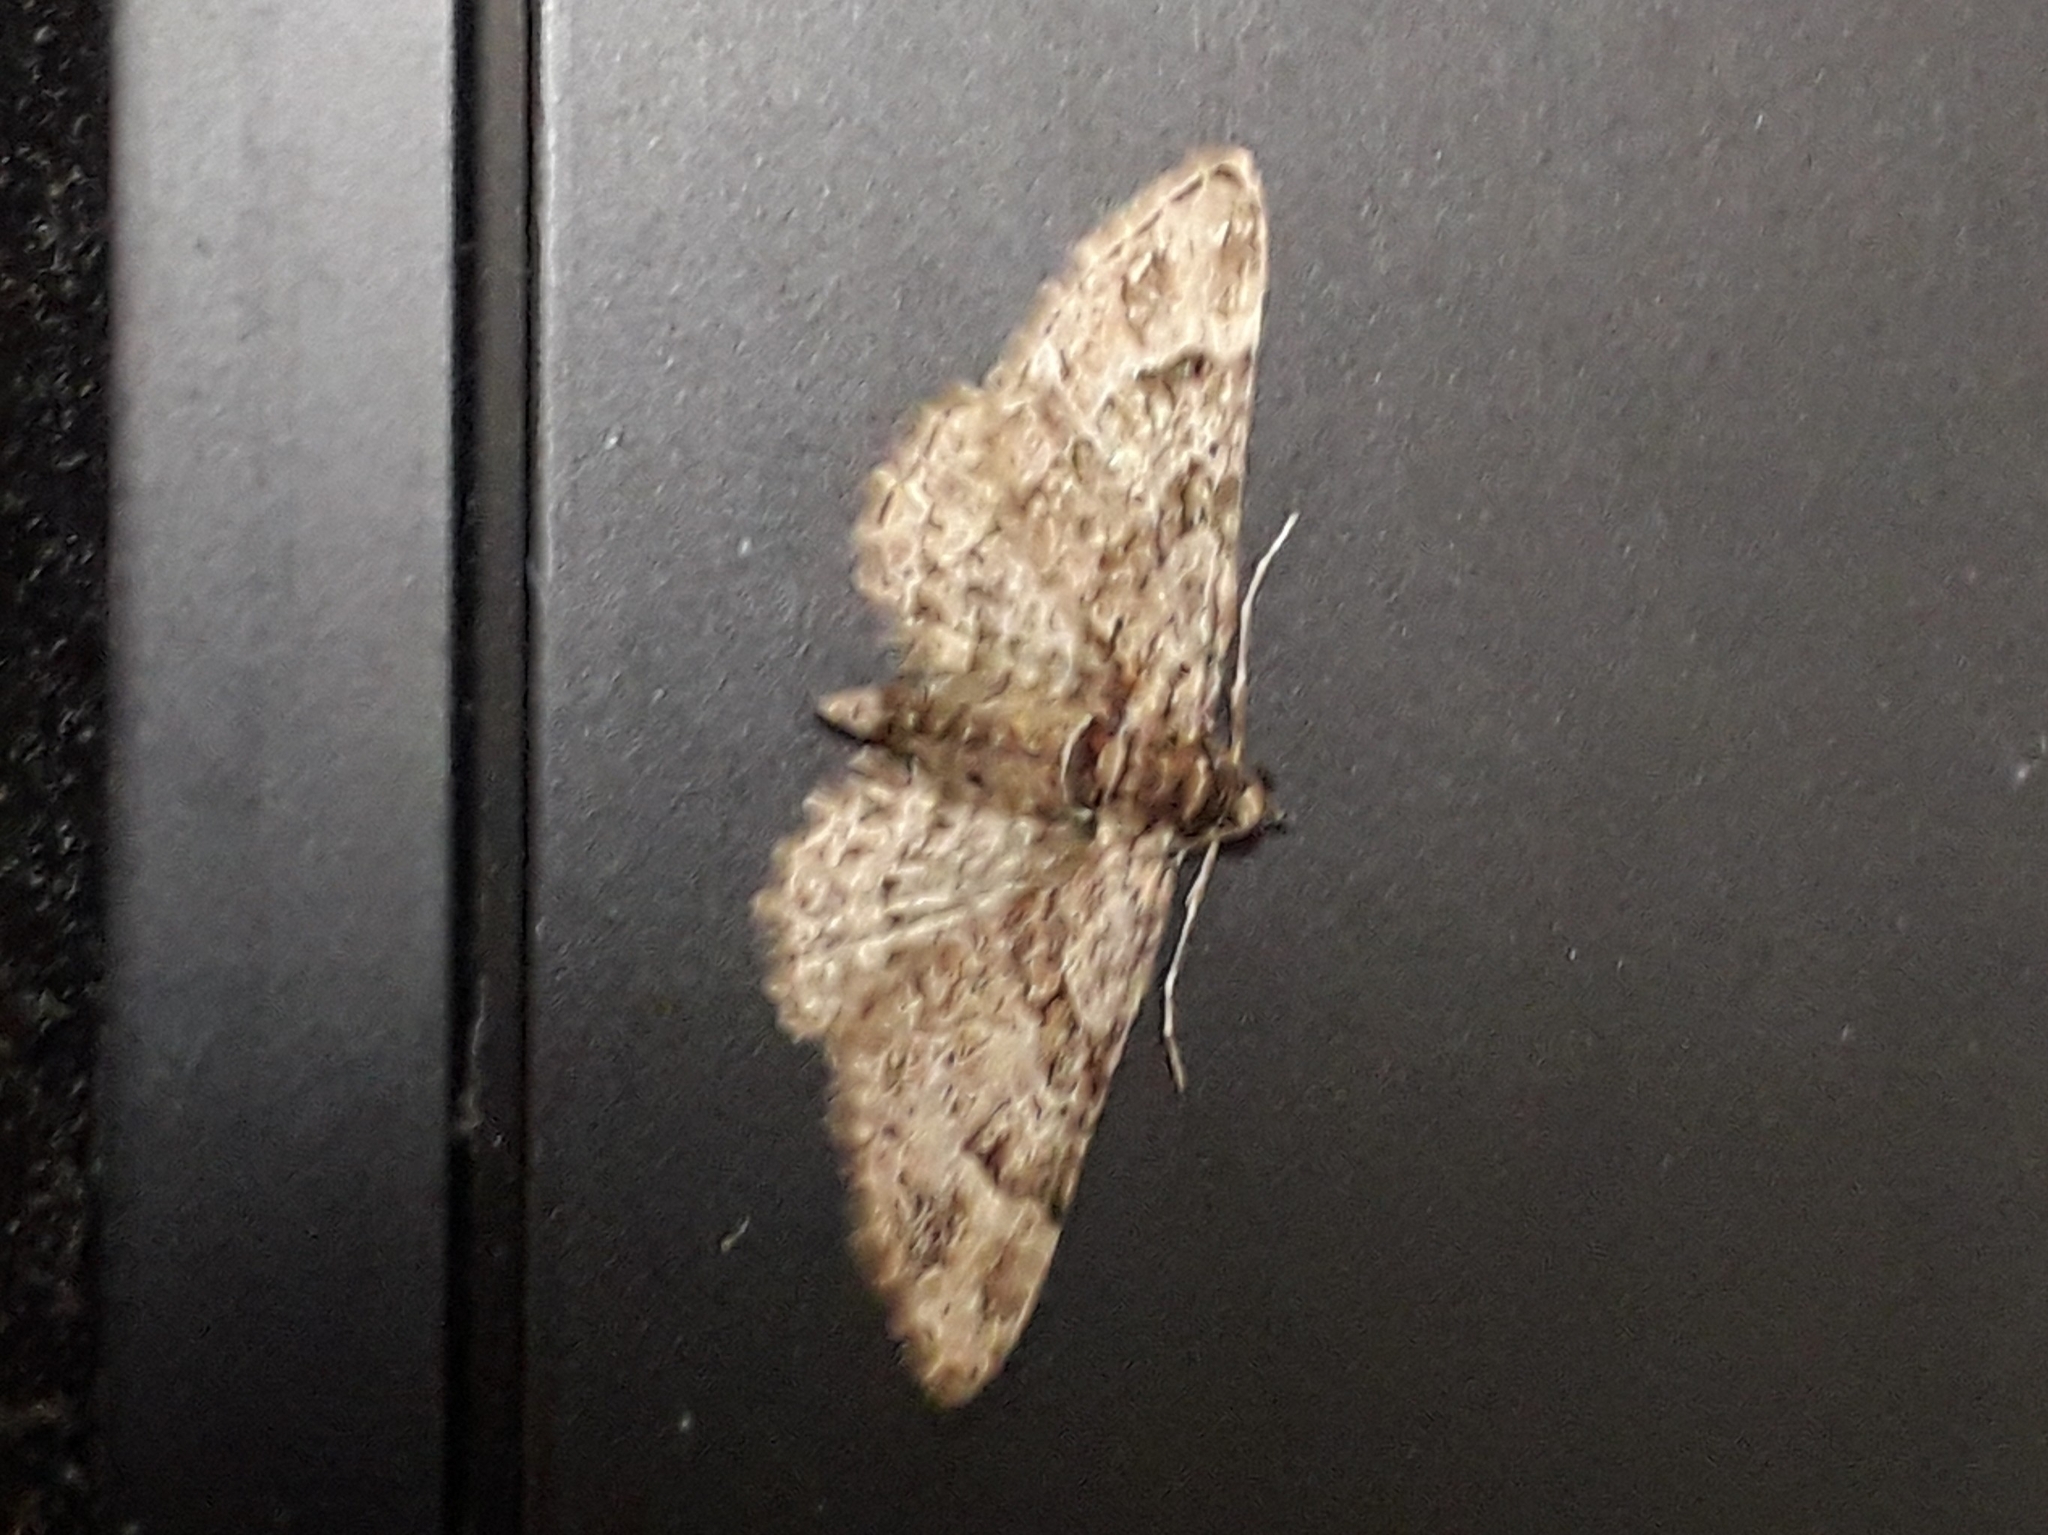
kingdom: Animalia
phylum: Arthropoda
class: Insecta
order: Lepidoptera
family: Geometridae
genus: Gymnoscelis
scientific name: Gymnoscelis rufifasciata
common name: Double-striped pug
